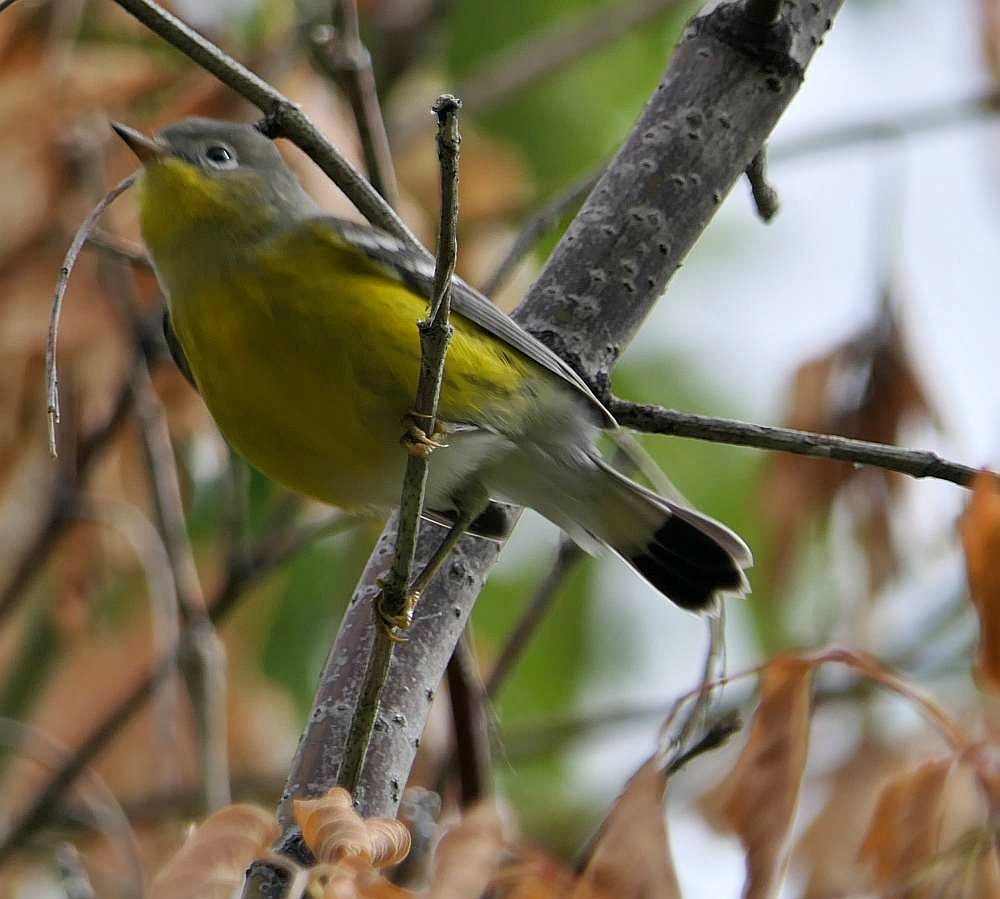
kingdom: Animalia
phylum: Chordata
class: Aves
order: Passeriformes
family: Parulidae
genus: Setophaga
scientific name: Setophaga magnolia
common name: Magnolia warbler
